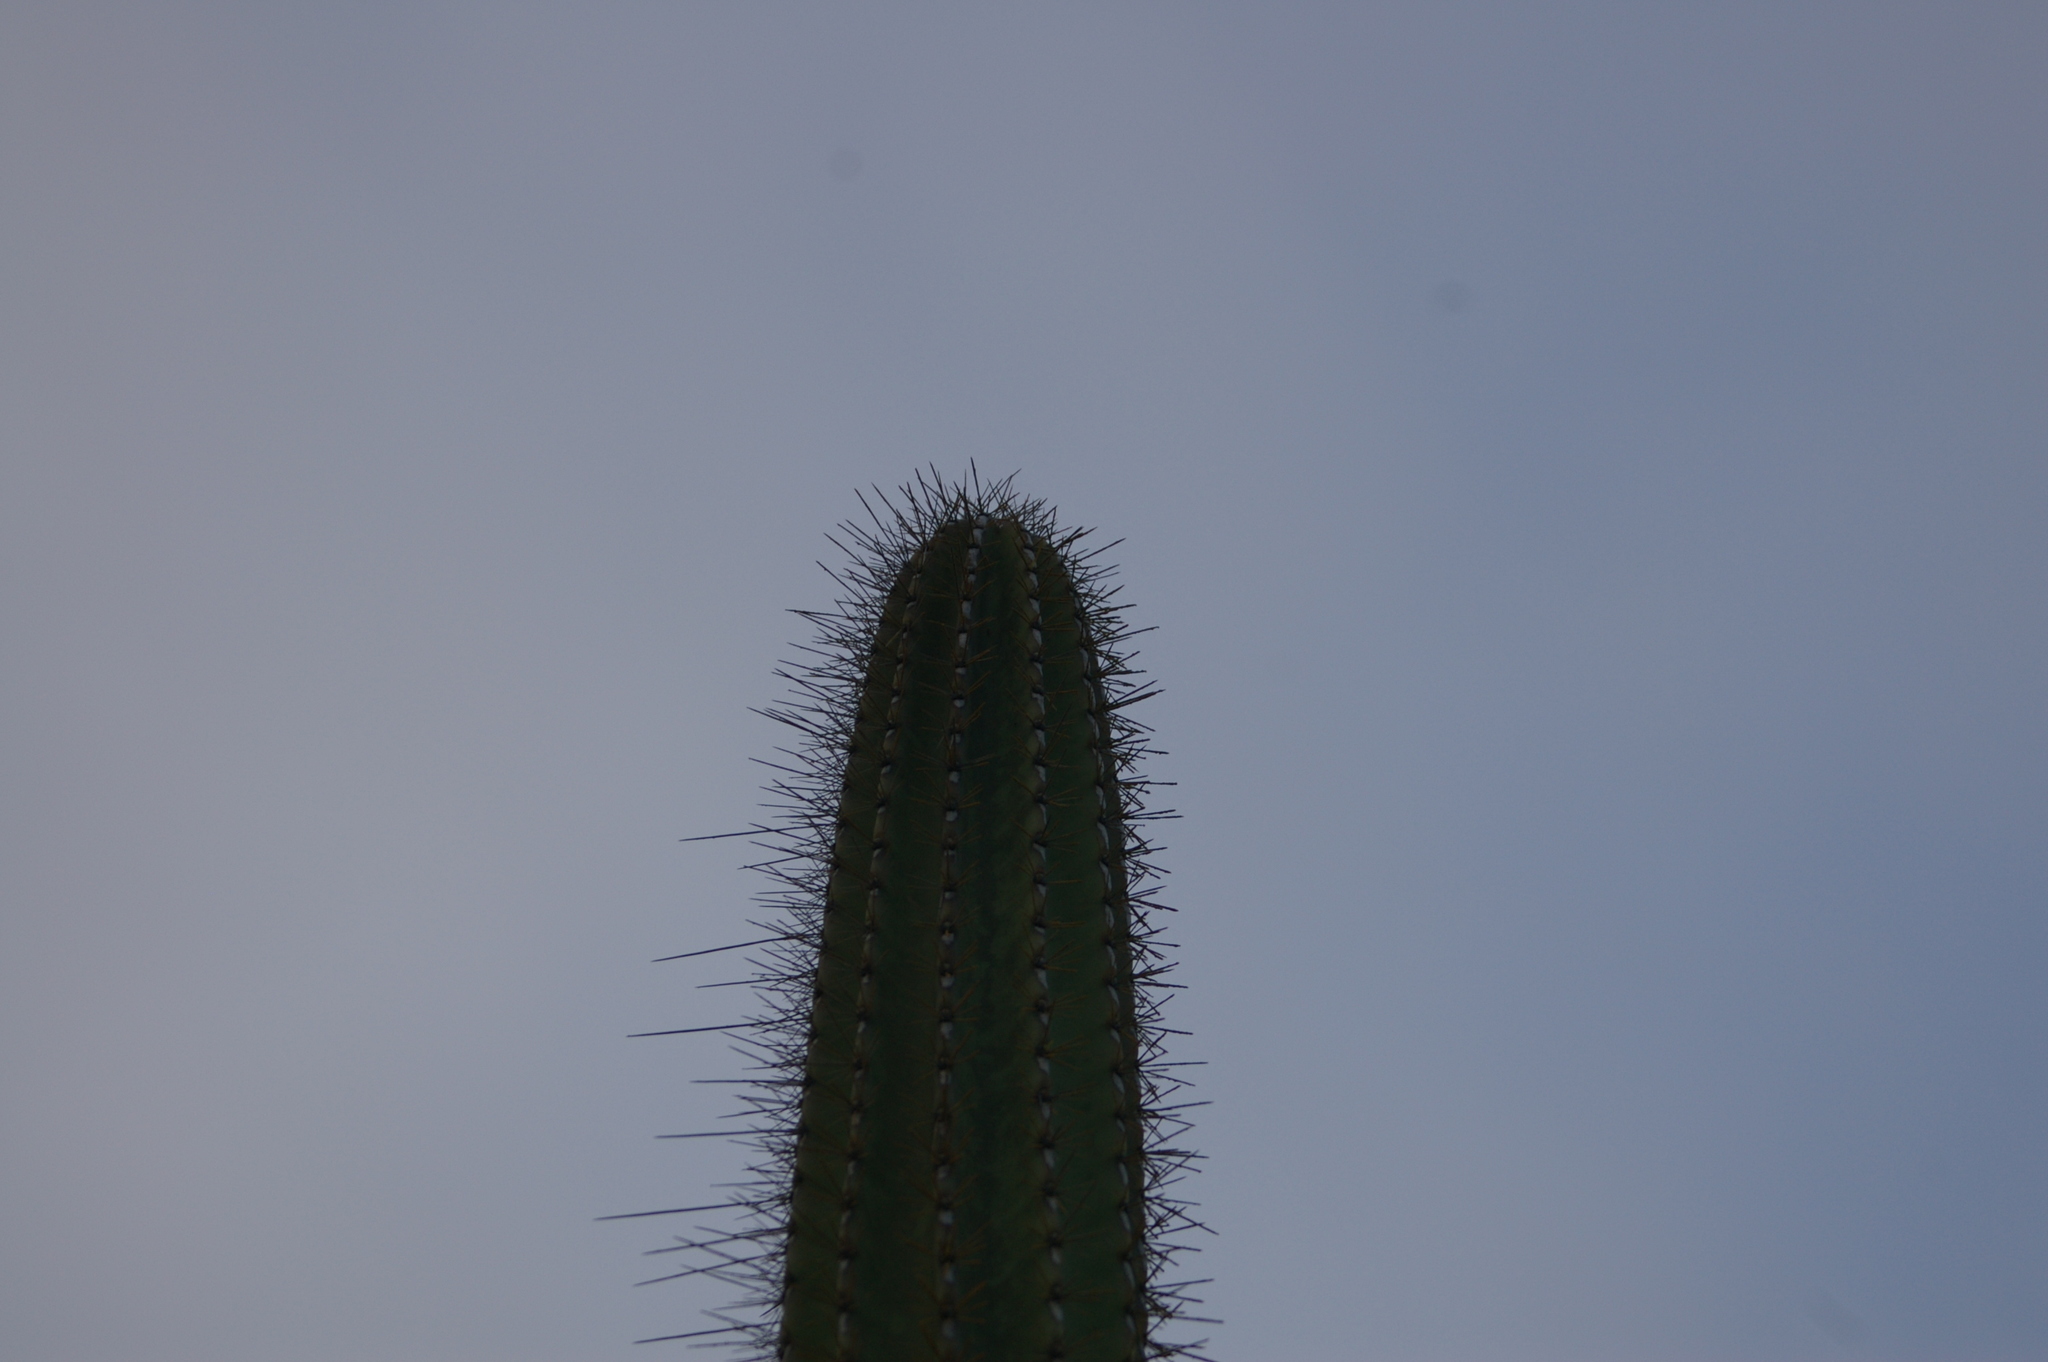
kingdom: Plantae
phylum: Tracheophyta
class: Magnoliopsida
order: Caryophyllales
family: Cactaceae
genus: Jasminocereus
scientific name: Jasminocereus thouarsii
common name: Candelabra cactus
